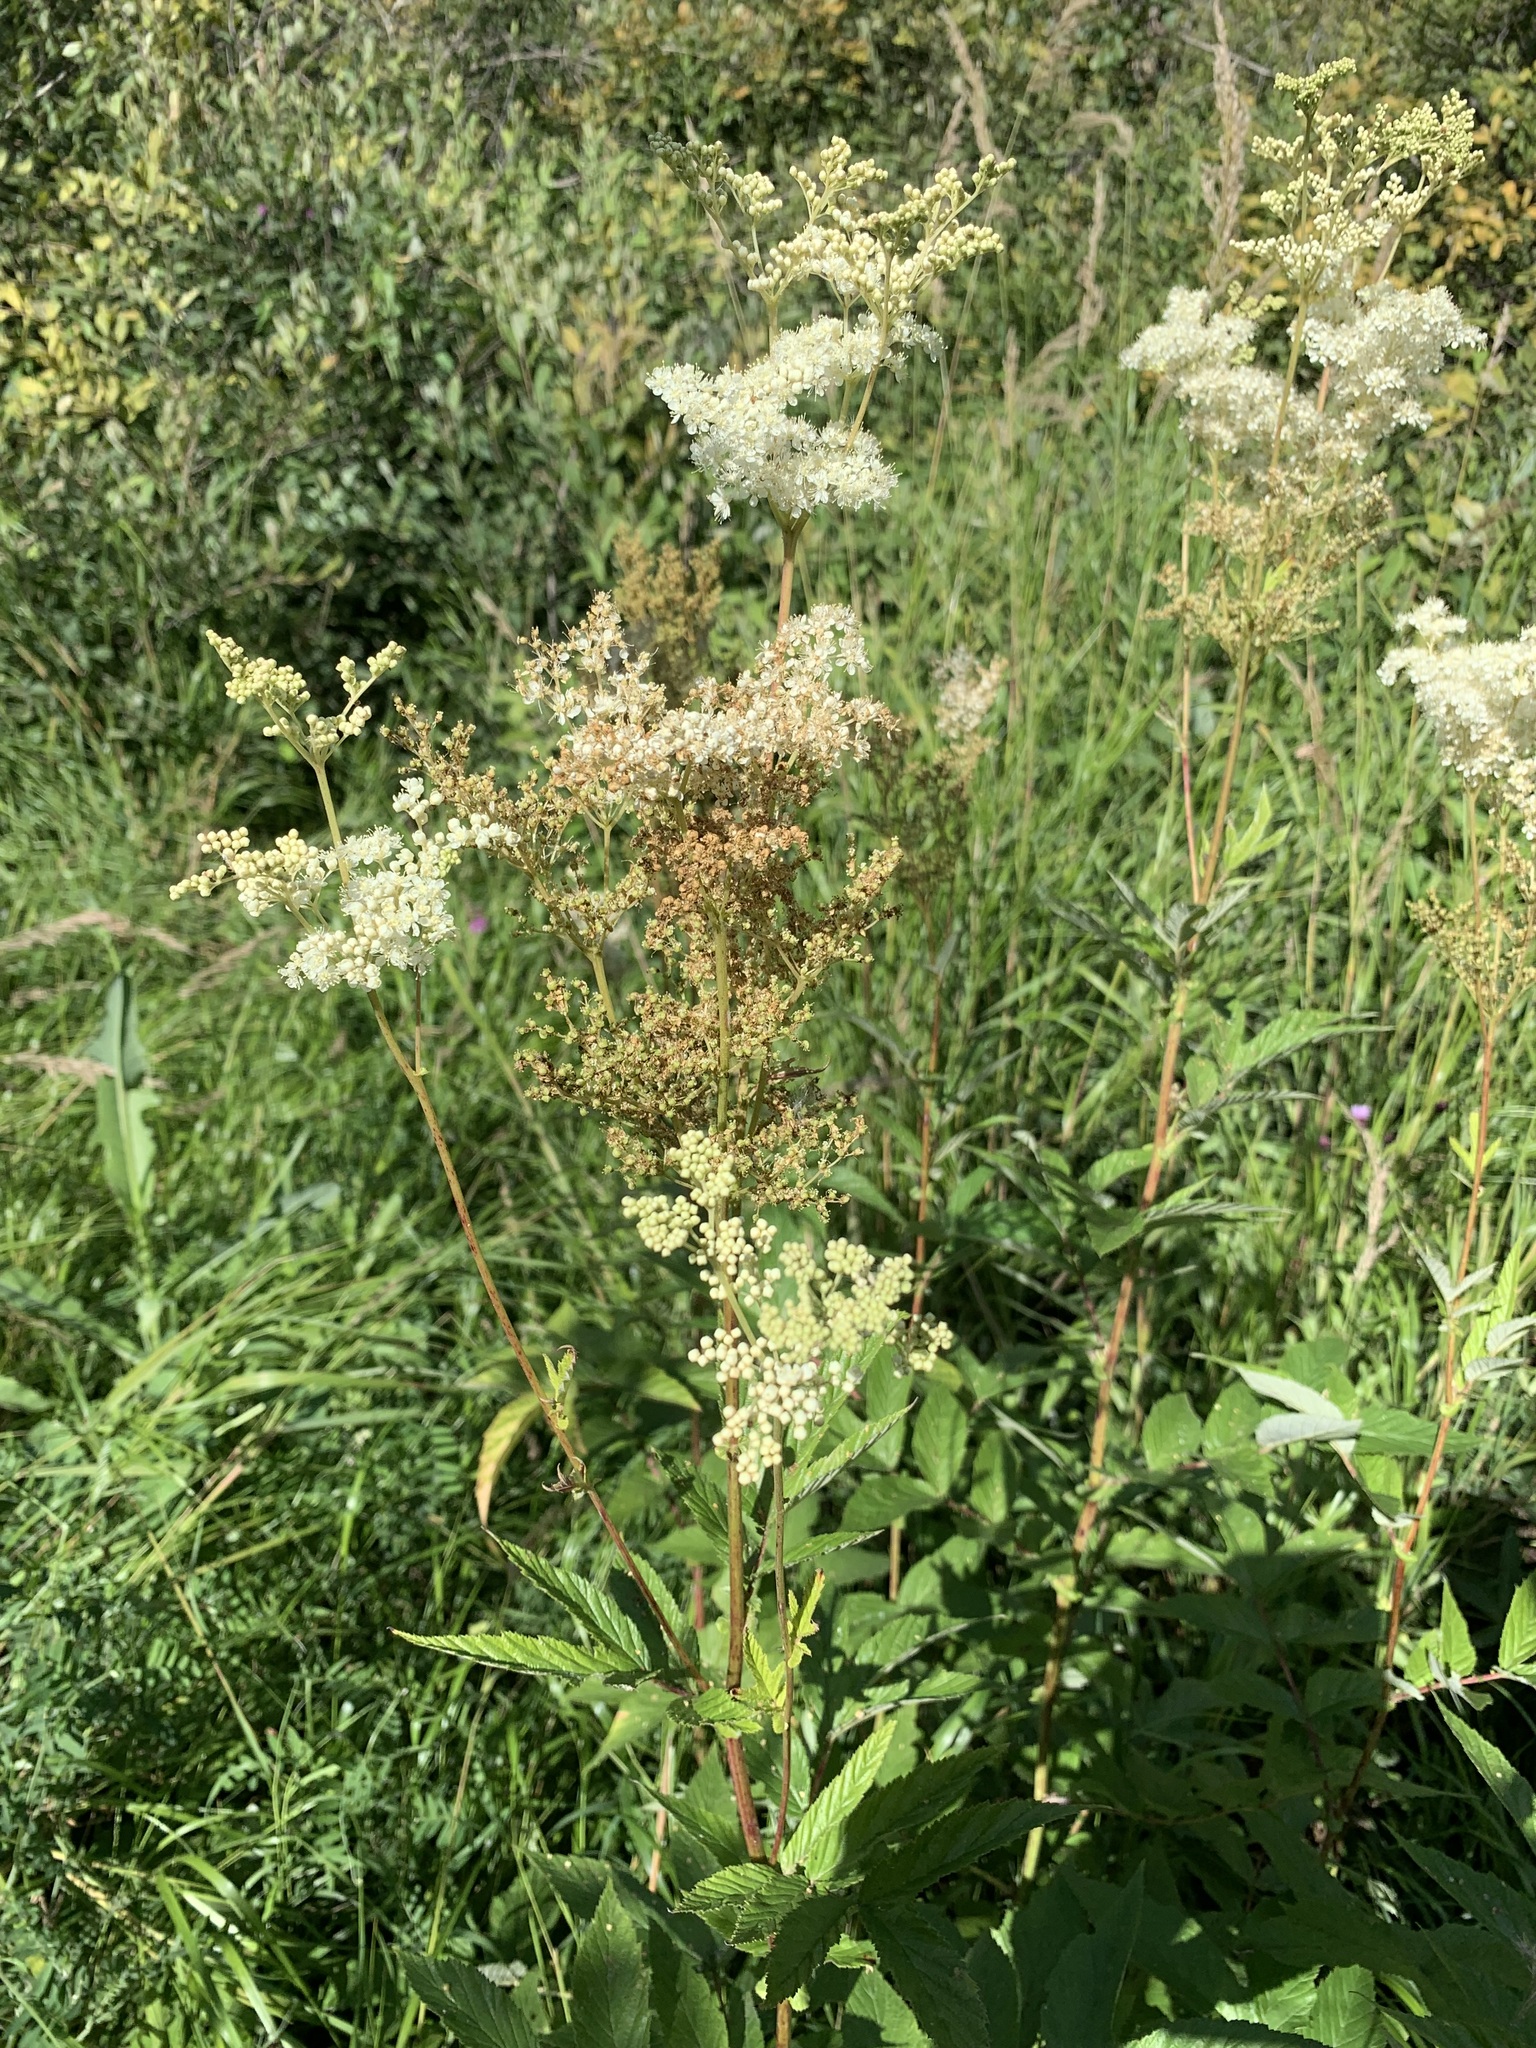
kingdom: Plantae
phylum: Tracheophyta
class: Magnoliopsida
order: Rosales
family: Rosaceae
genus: Filipendula
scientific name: Filipendula ulmaria
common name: Meadowsweet
